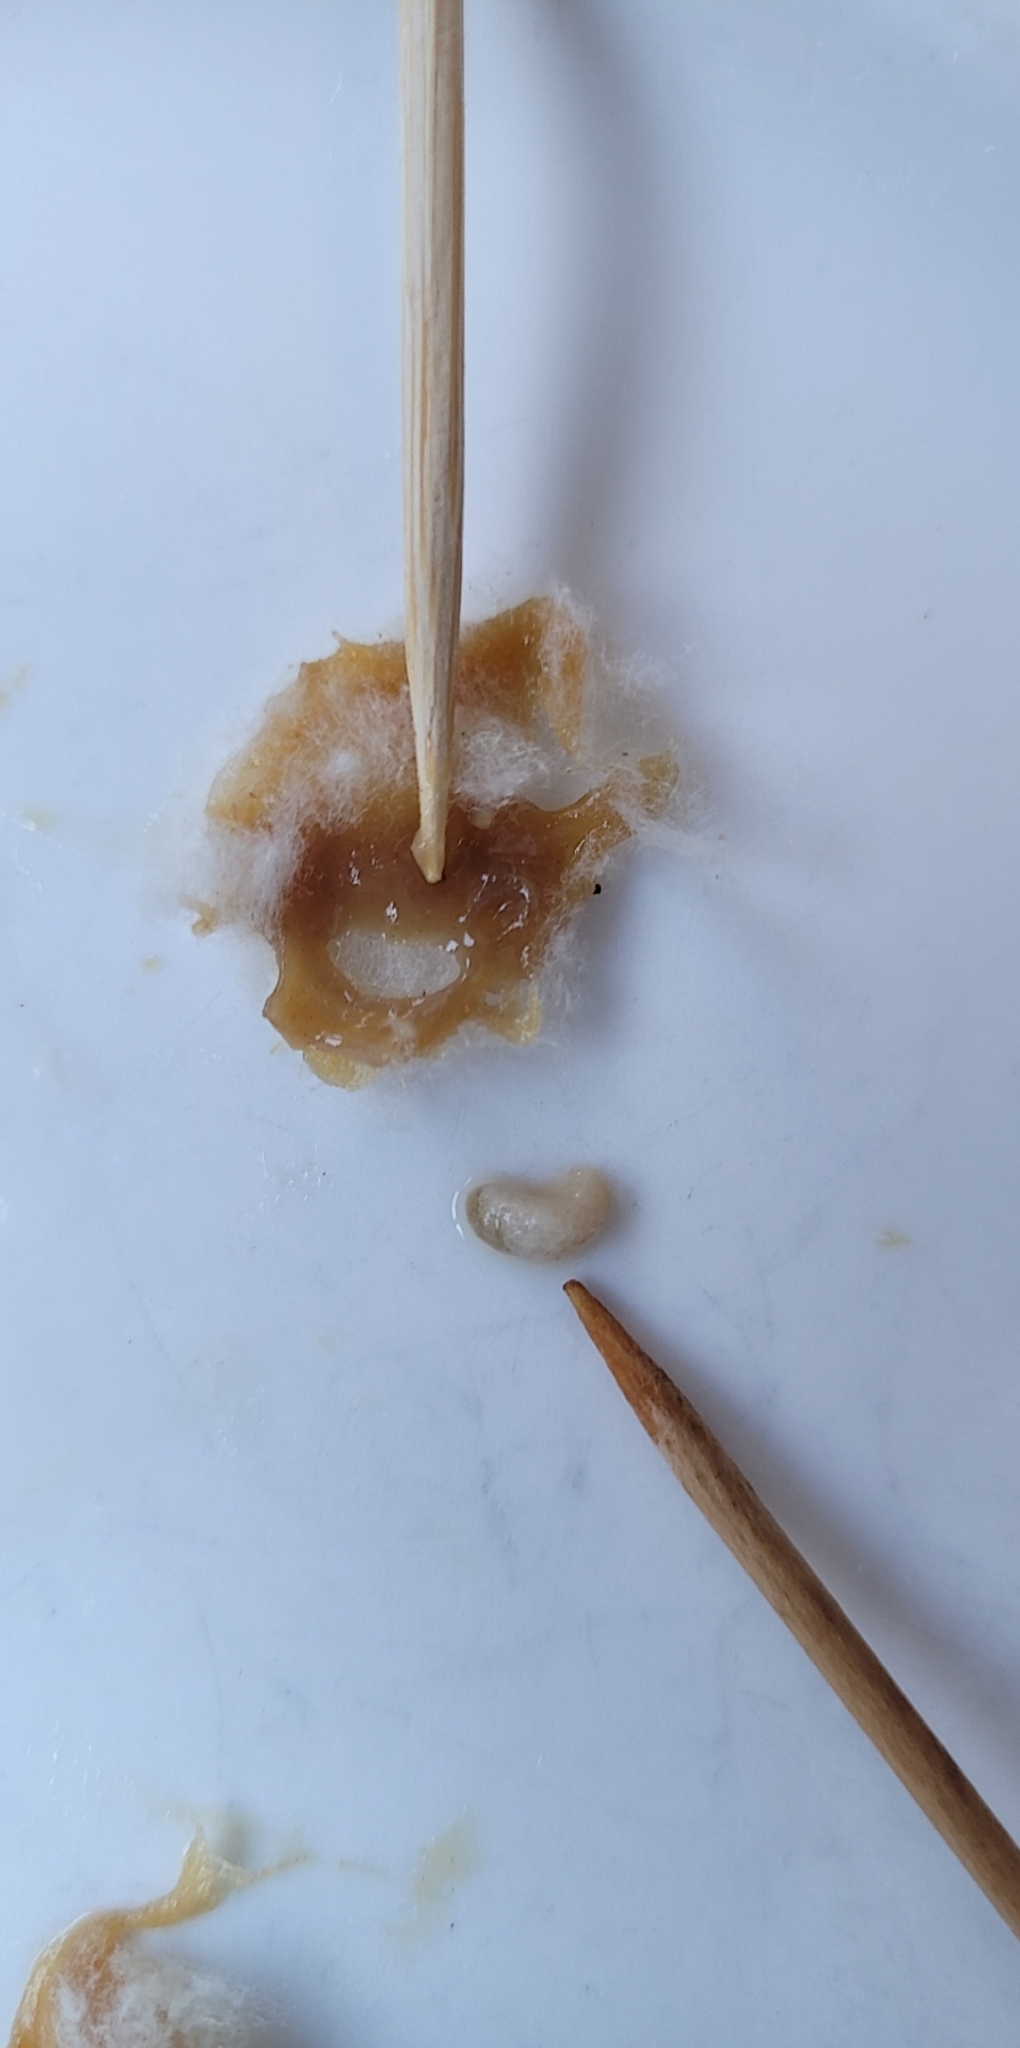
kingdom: Animalia
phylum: Arthropoda
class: Insecta
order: Hymenoptera
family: Megachilidae
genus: Anthidium
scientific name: Anthidium manicatum
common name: Wool carder bee
